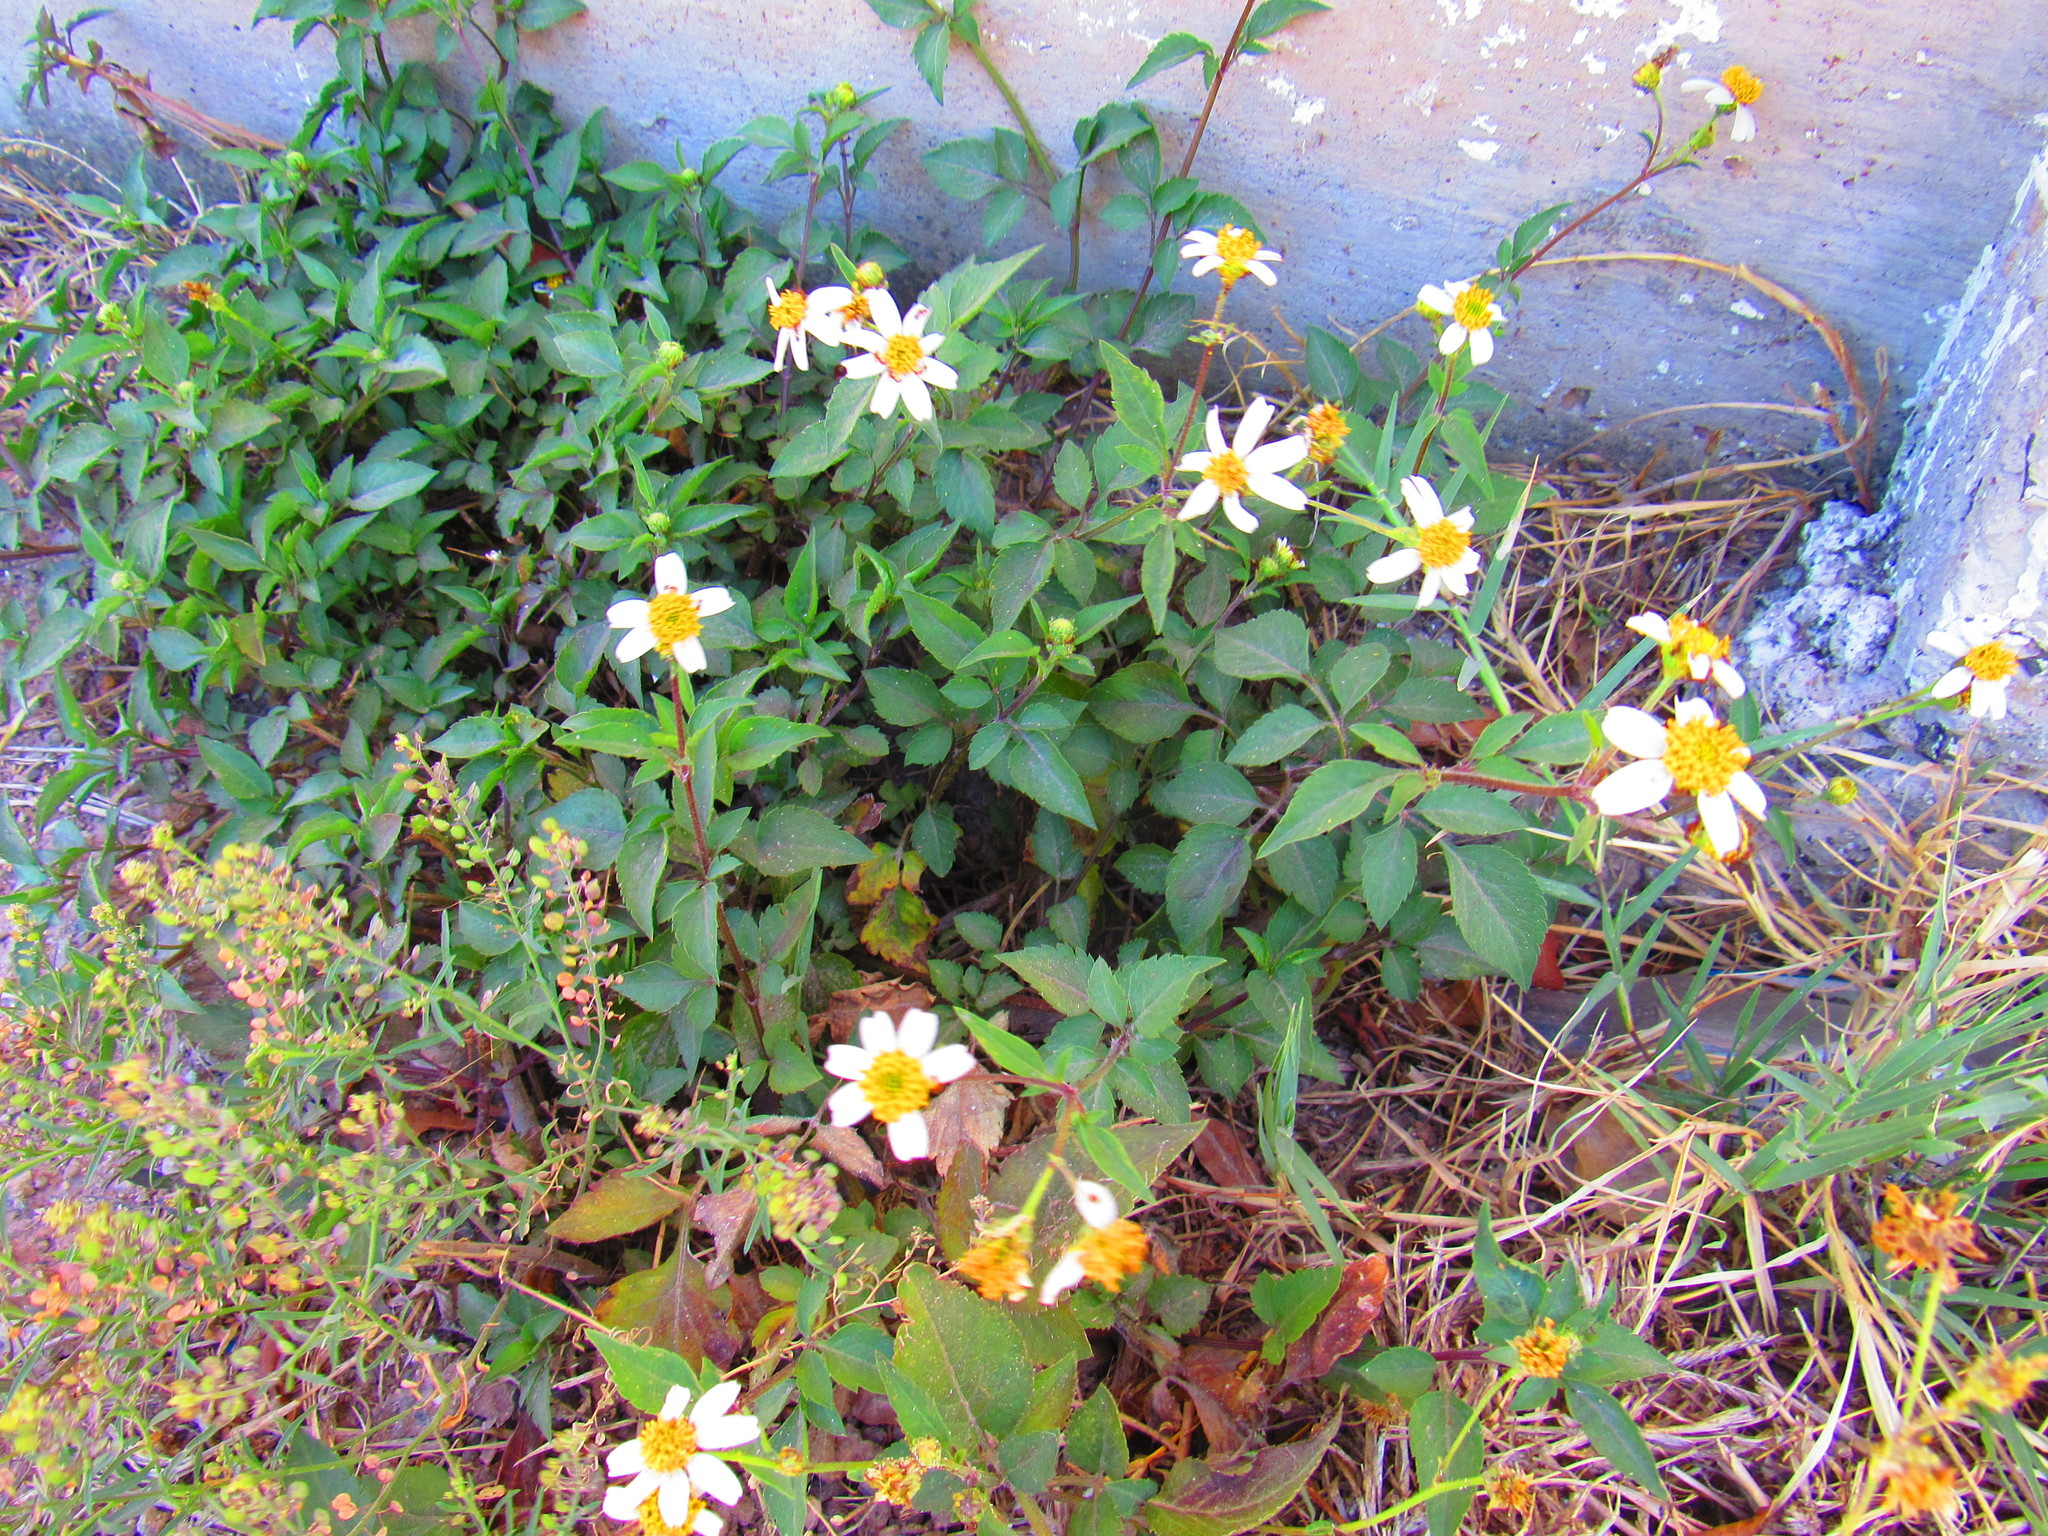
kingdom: Plantae
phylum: Tracheophyta
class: Magnoliopsida
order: Asterales
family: Asteraceae
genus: Bidens
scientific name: Bidens odorata
